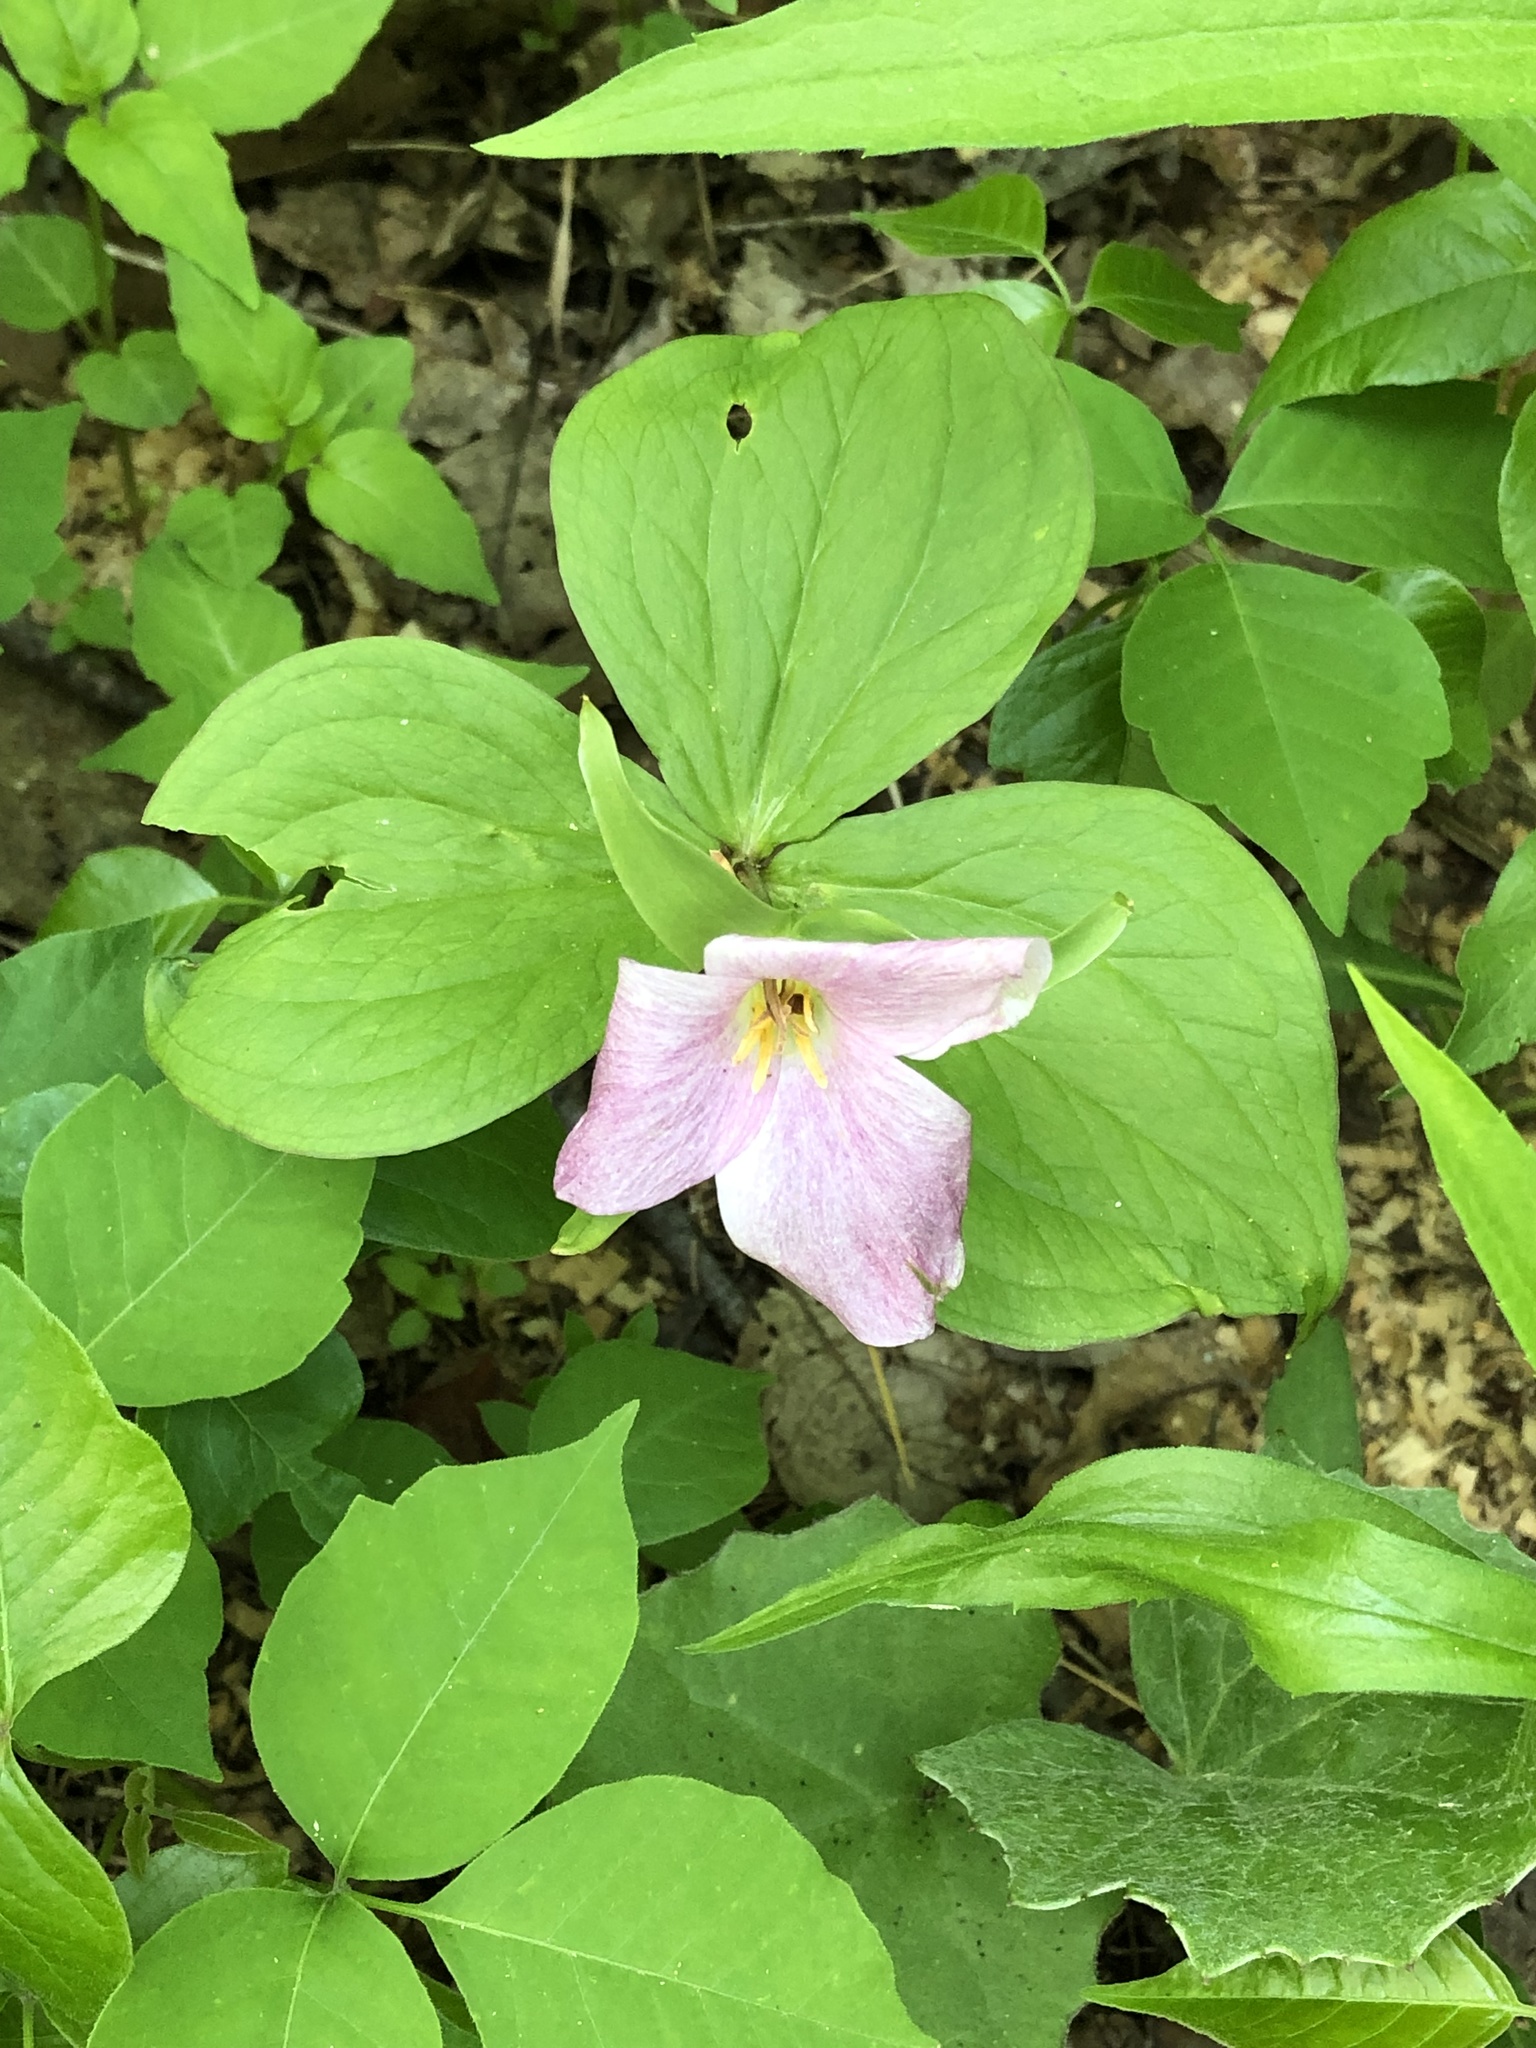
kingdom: Plantae
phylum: Tracheophyta
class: Liliopsida
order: Liliales
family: Melanthiaceae
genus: Trillium
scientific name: Trillium grandiflorum
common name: Great white trillium
